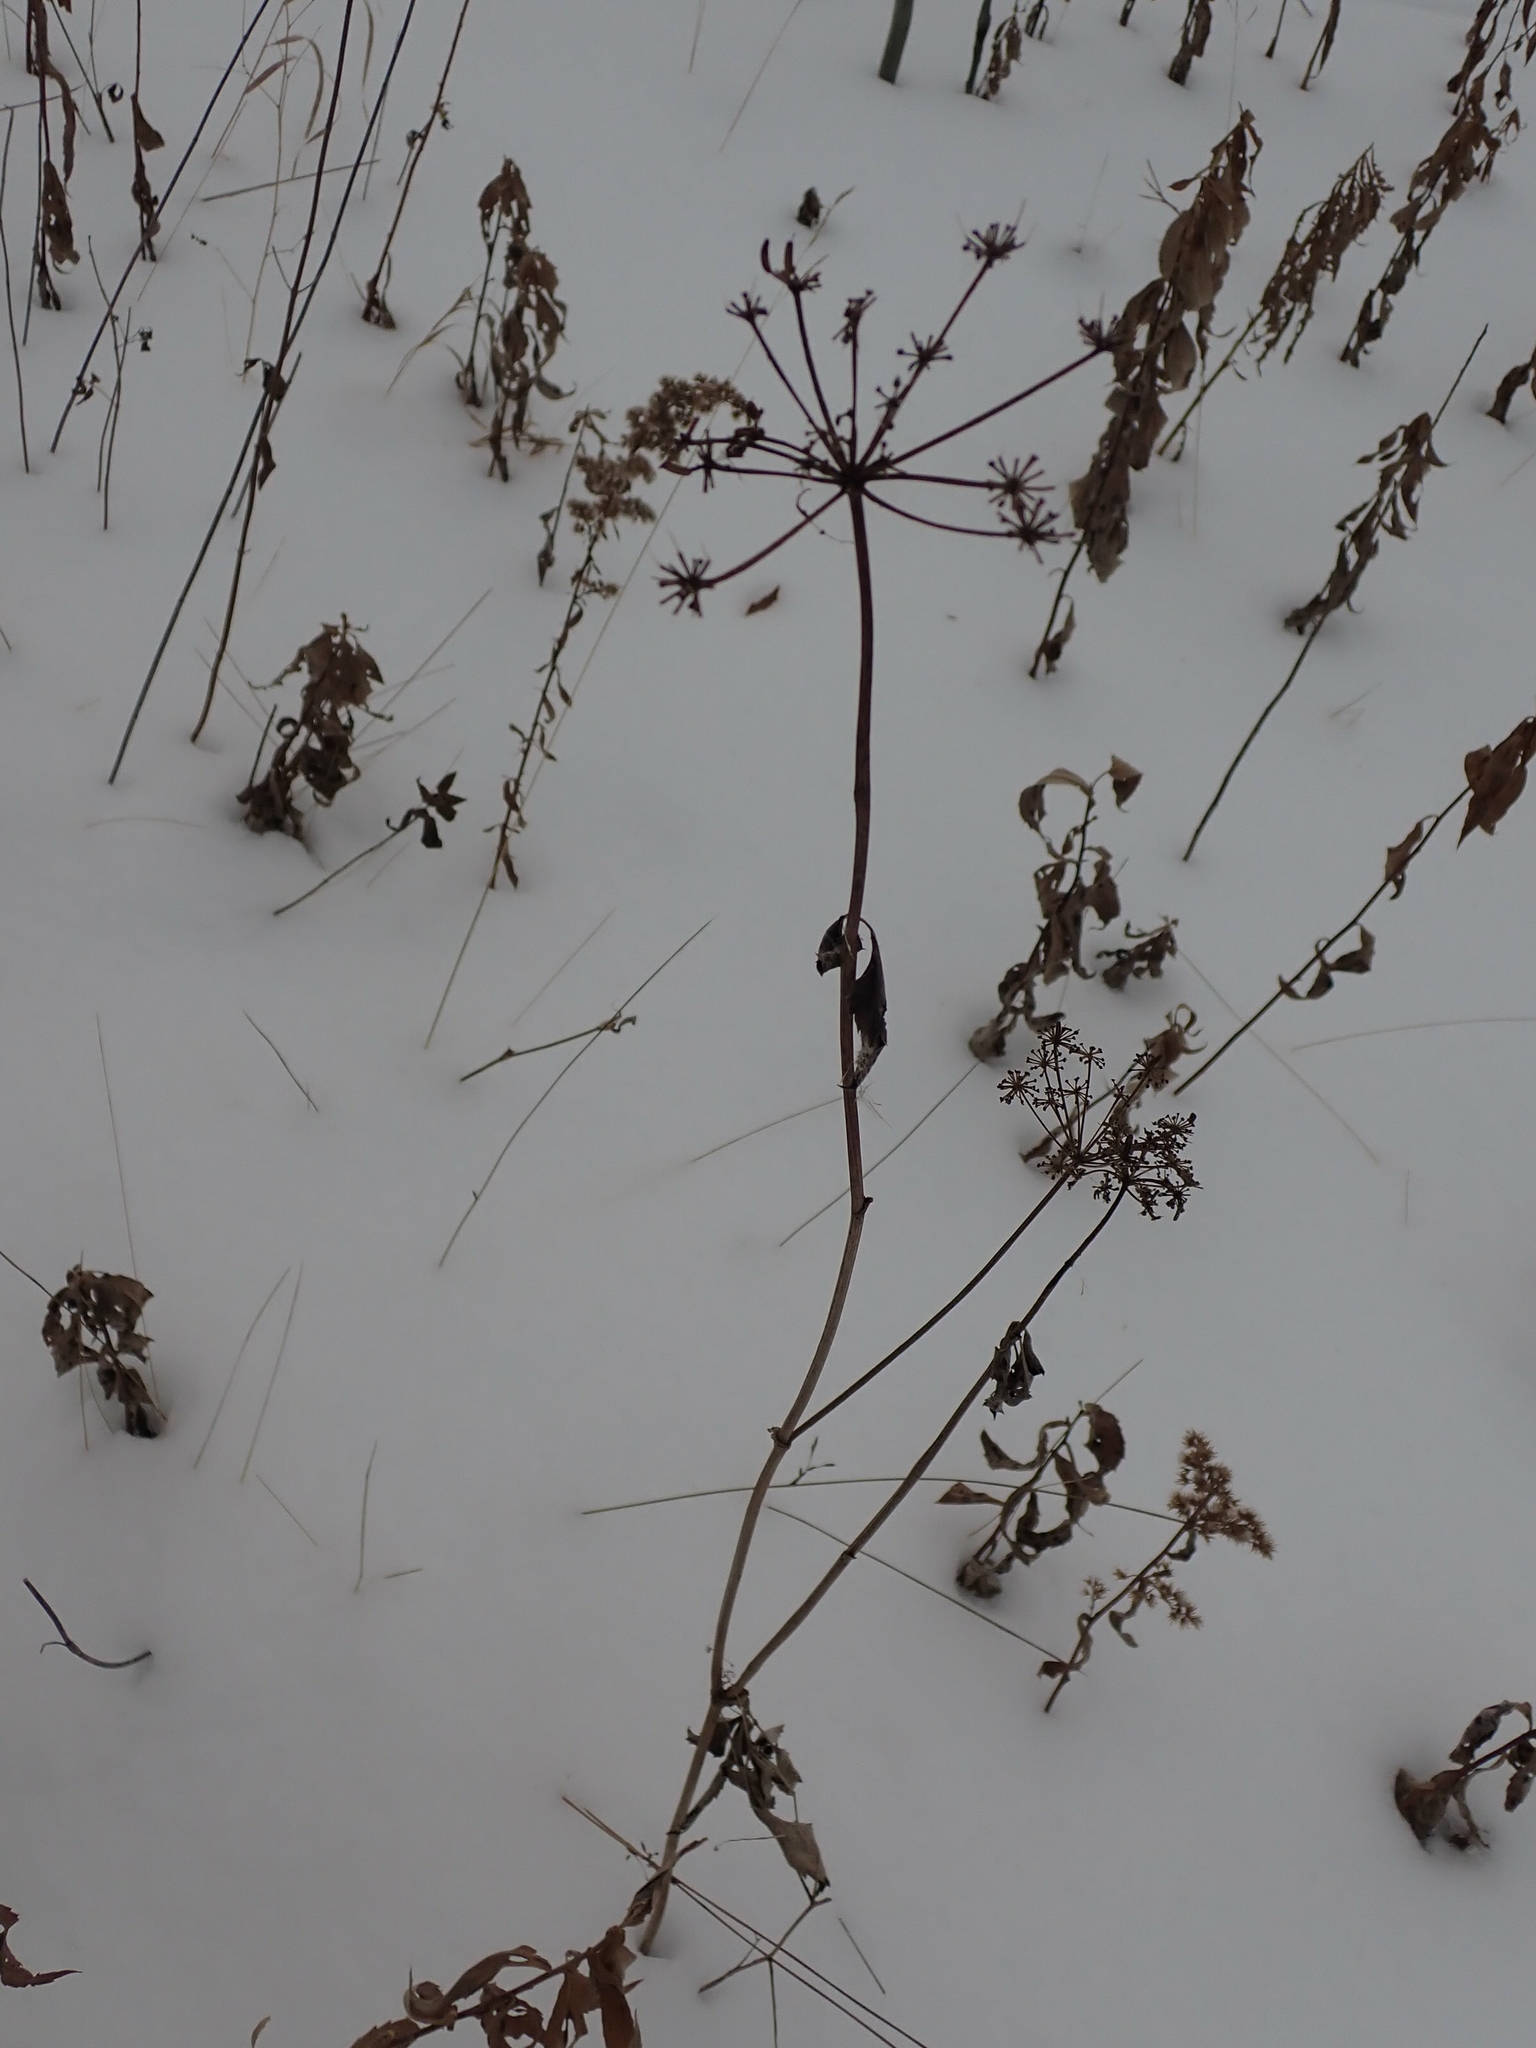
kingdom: Plantae
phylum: Tracheophyta
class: Magnoliopsida
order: Apiales
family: Apiaceae
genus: Zizia
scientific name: Zizia aurea
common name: Golden alexanders
